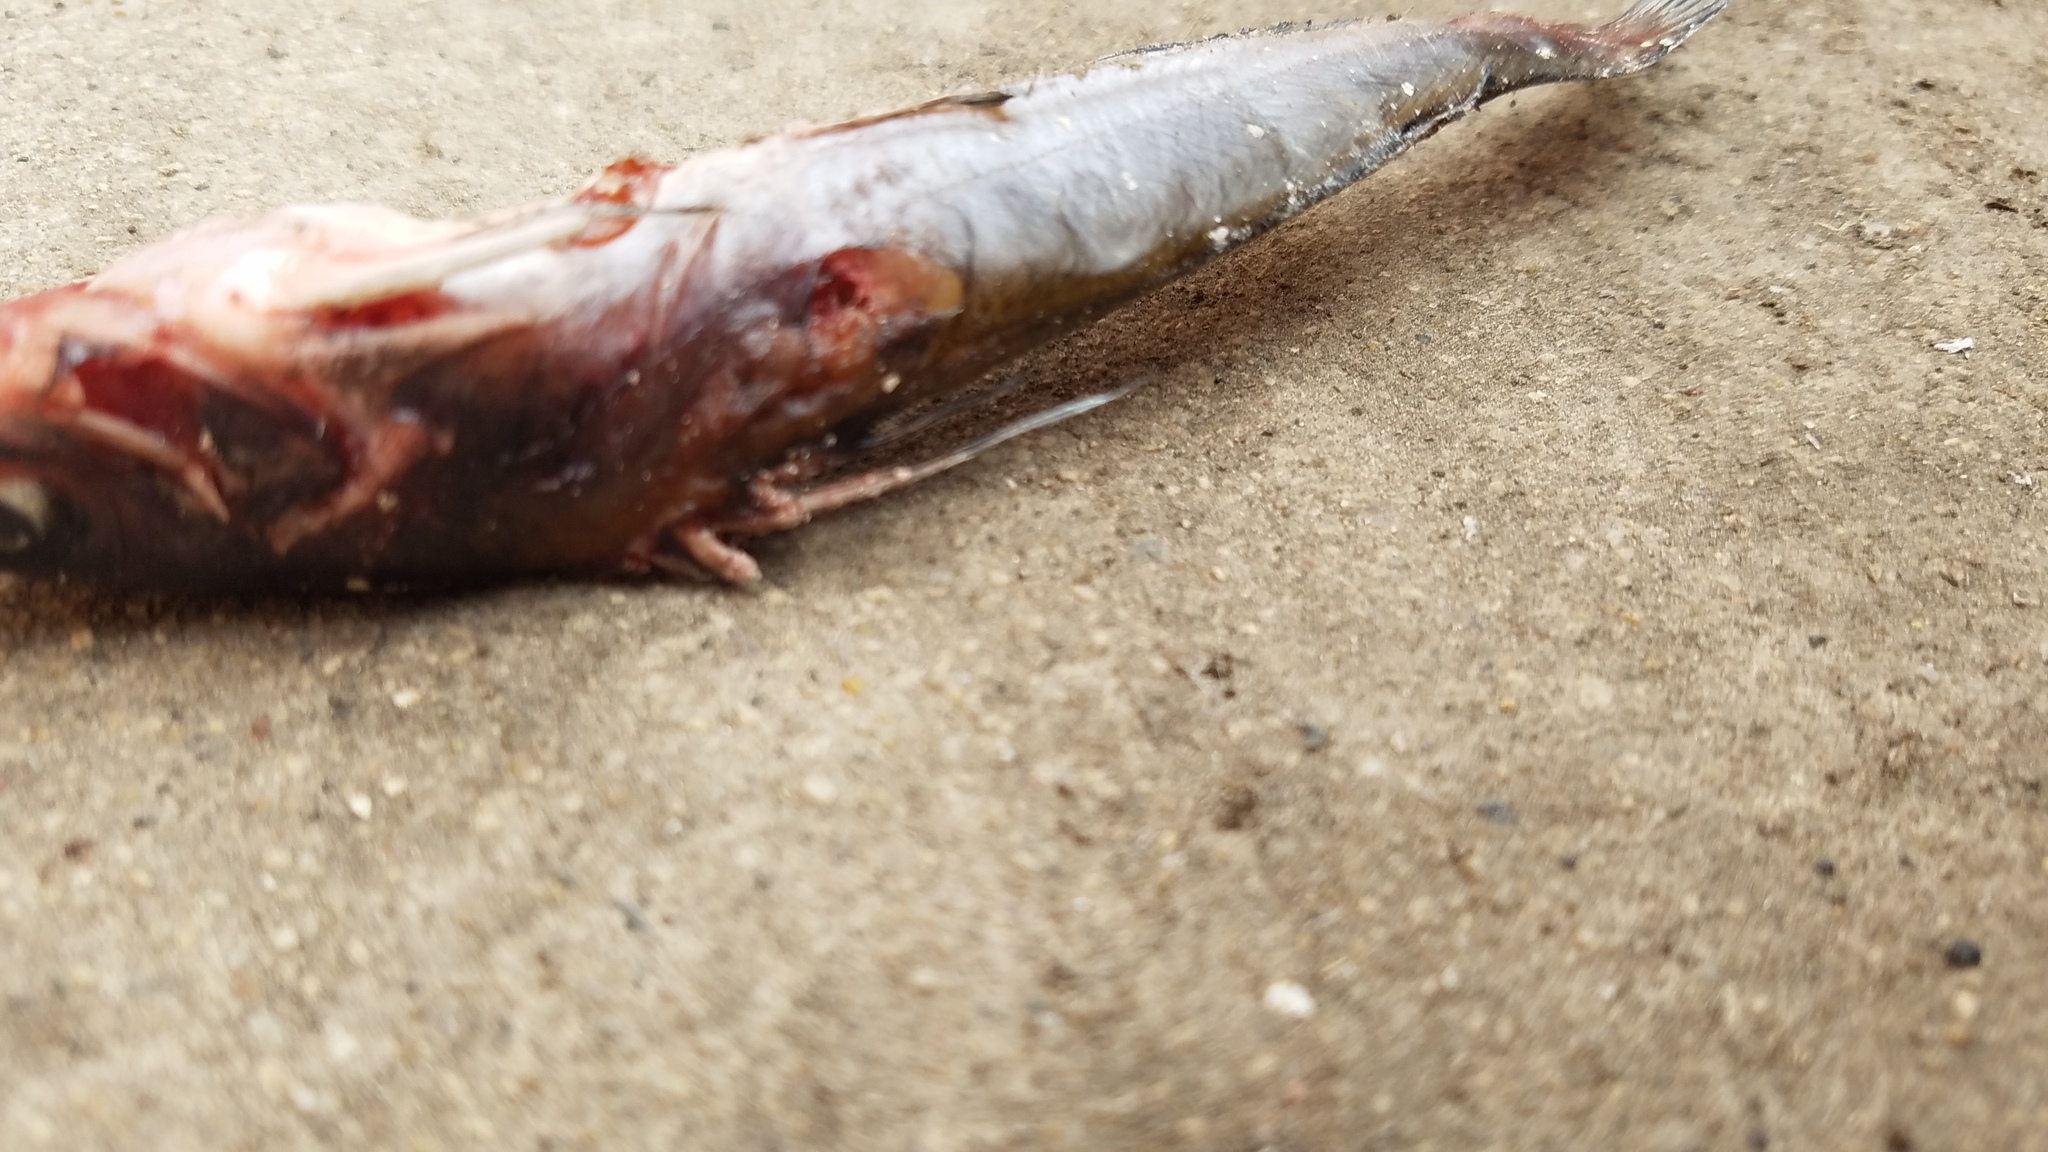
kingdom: Animalia
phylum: Chordata
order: Siluriformes
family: Ictaluridae
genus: Ictalurus
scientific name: Ictalurus punctatus
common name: Channel catfish
